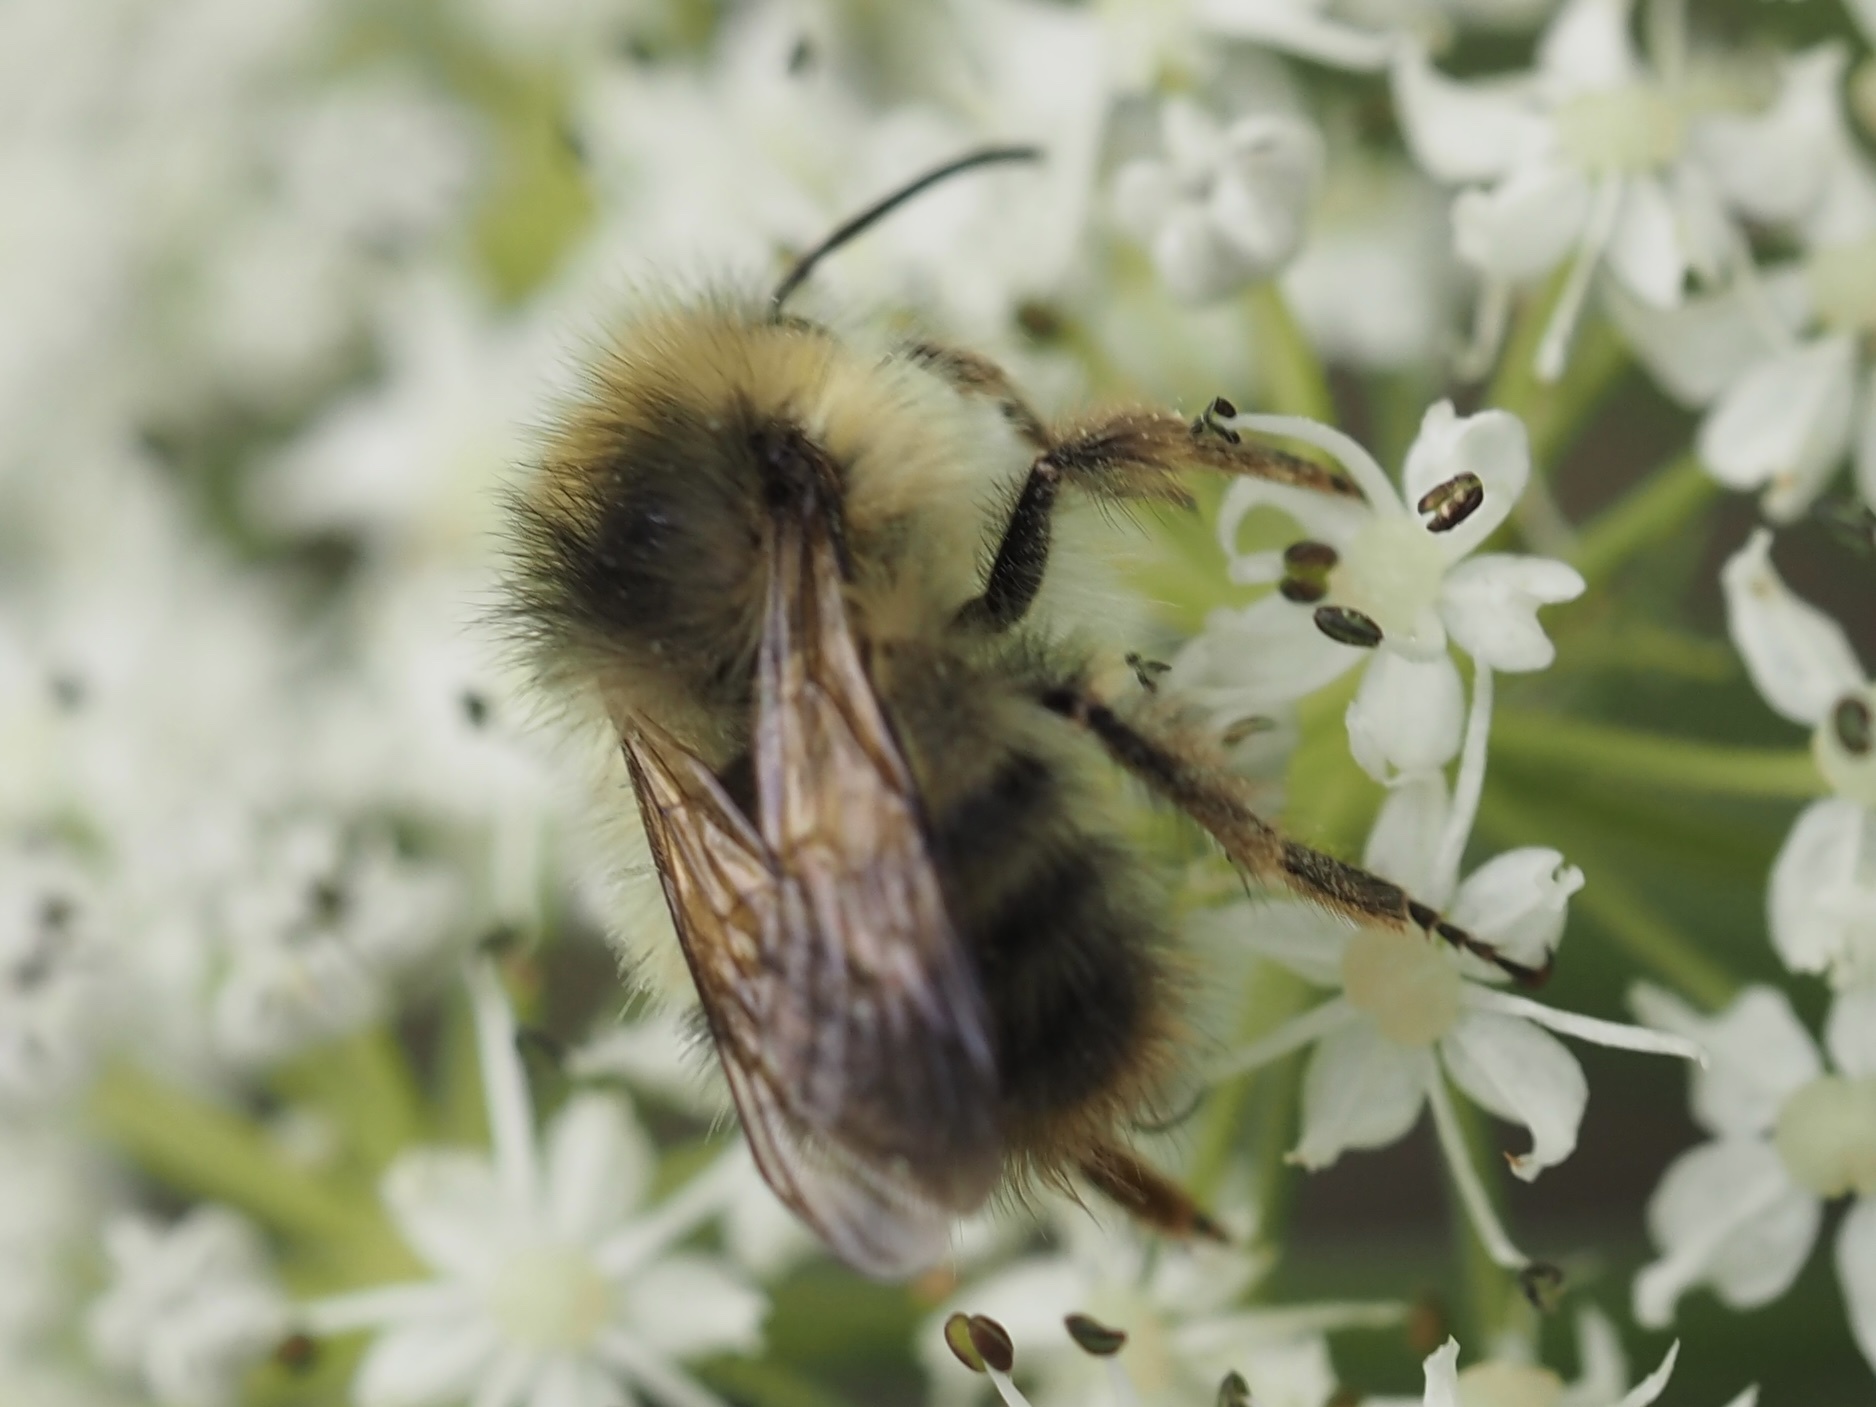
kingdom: Animalia
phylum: Arthropoda
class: Insecta
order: Hymenoptera
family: Apidae
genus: Bombus
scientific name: Bombus sitkensis
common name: Sitka bumble bee
